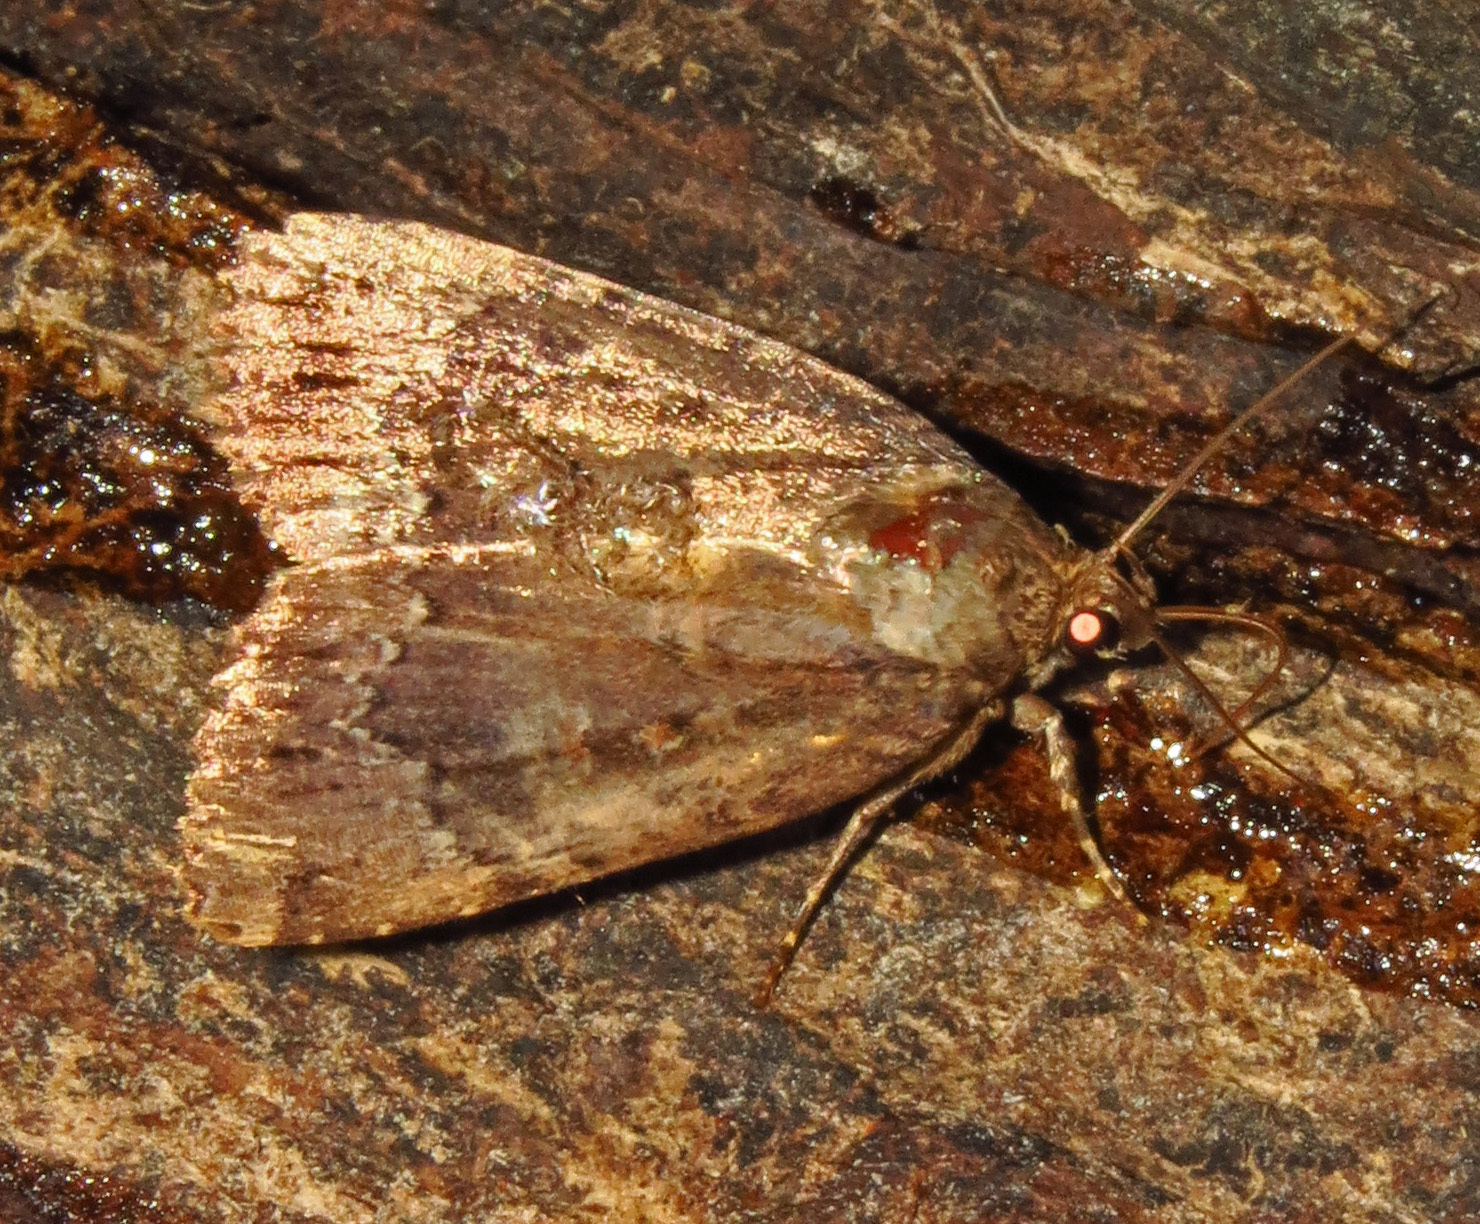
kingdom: Animalia
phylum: Arthropoda
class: Insecta
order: Lepidoptera
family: Noctuidae
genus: Amphipyra
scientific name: Amphipyra pyramidoides
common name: American copper underwing
